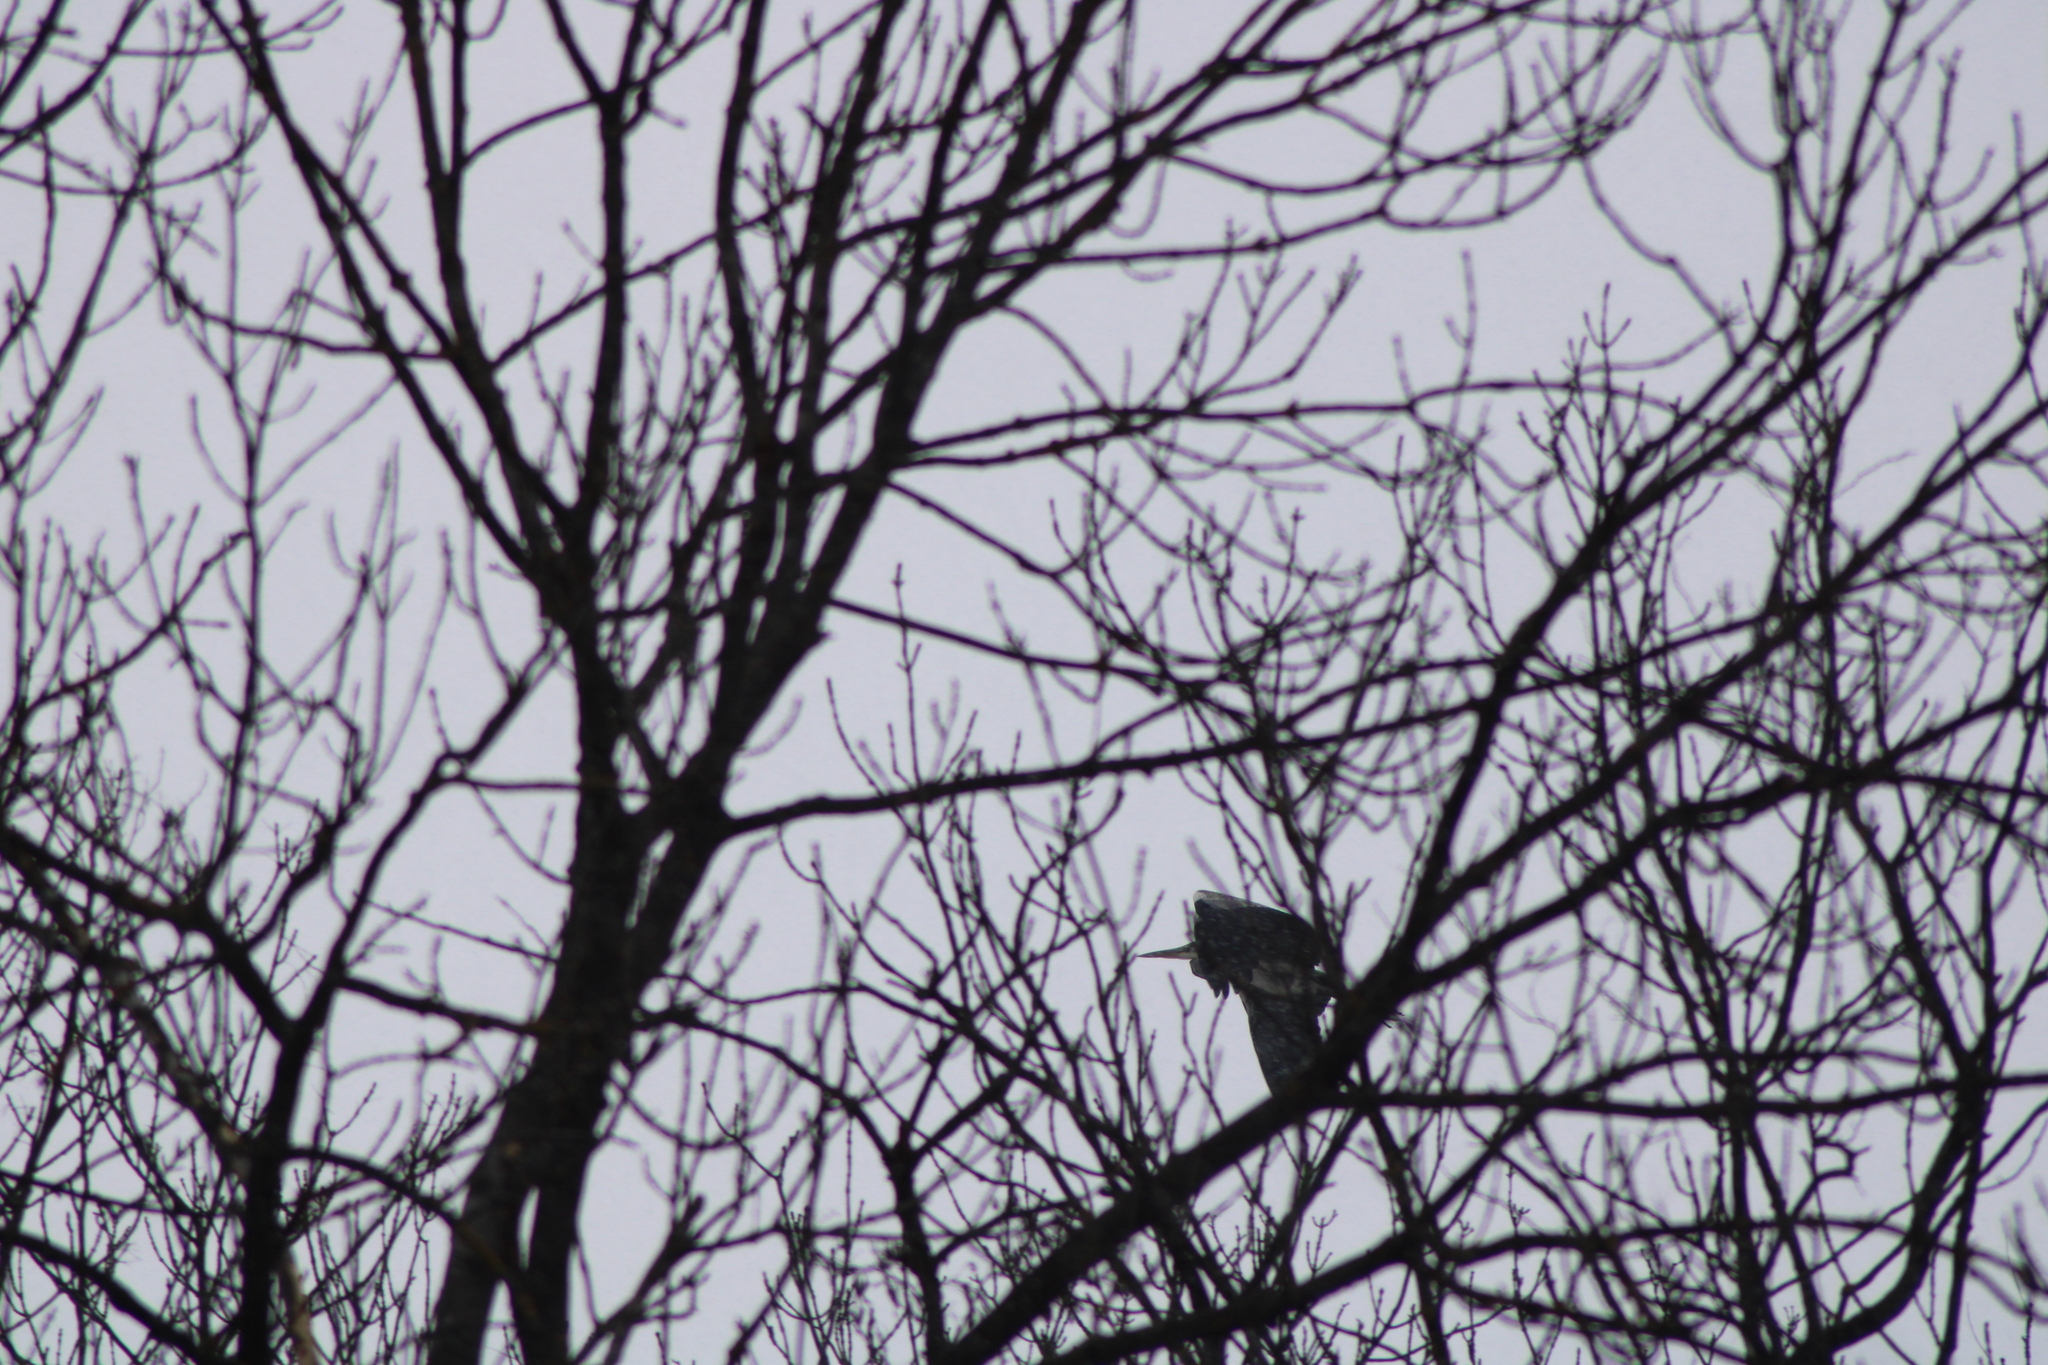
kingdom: Animalia
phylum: Chordata
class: Aves
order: Pelecaniformes
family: Ardeidae
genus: Ardea
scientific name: Ardea cinerea
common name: Grey heron
